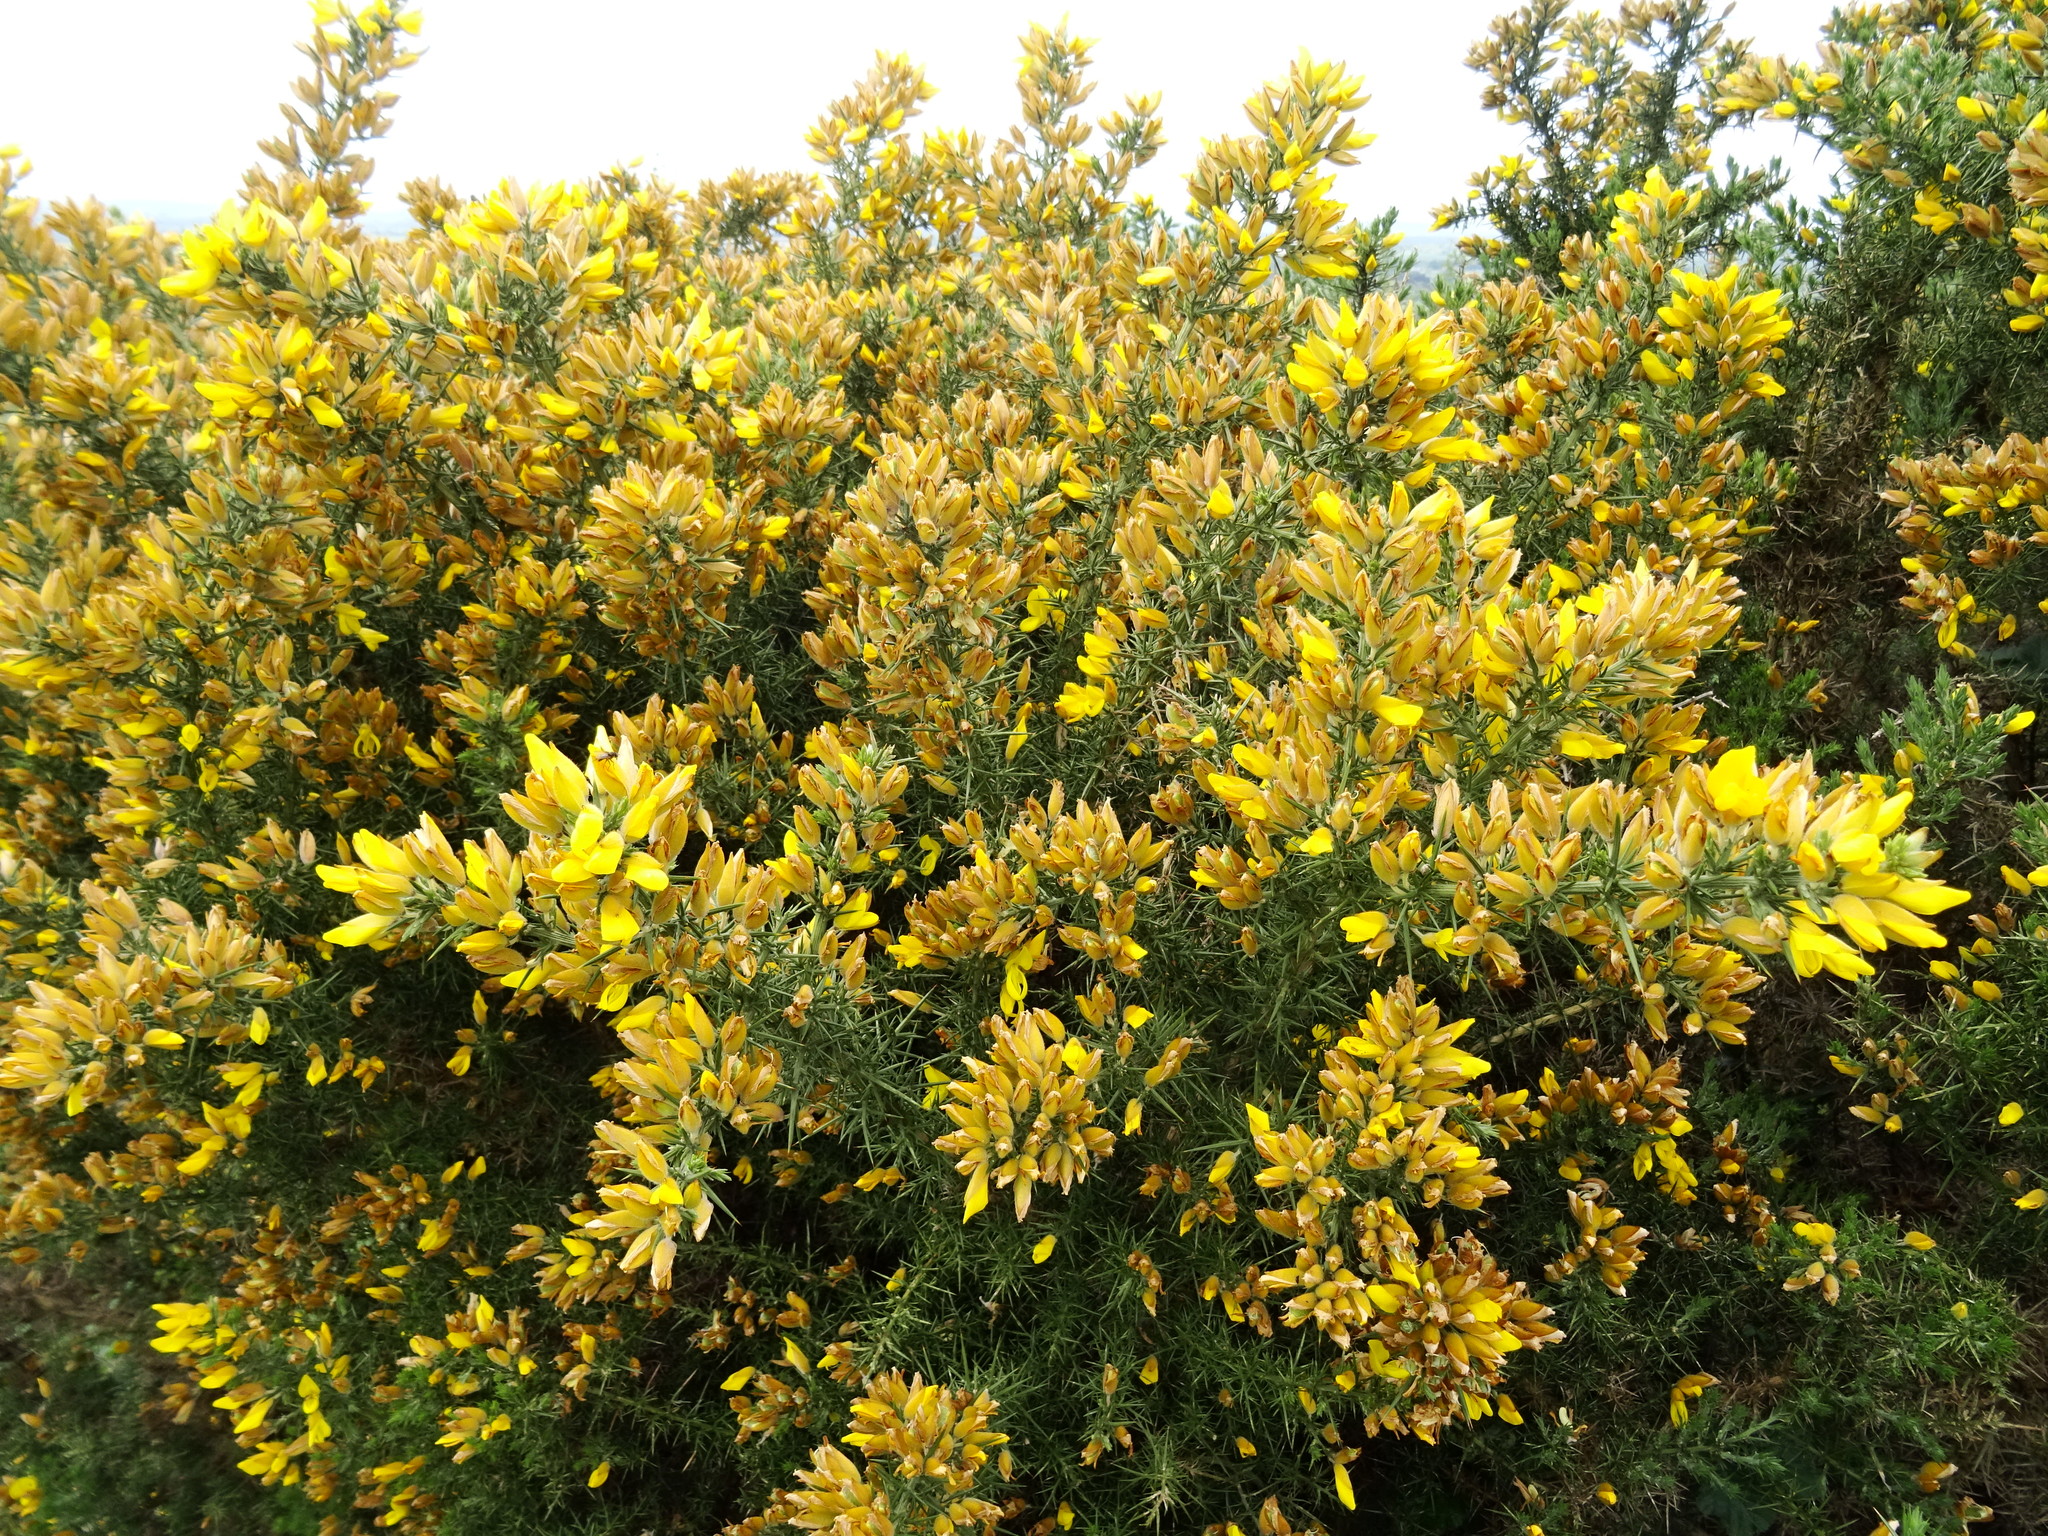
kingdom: Plantae
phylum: Tracheophyta
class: Magnoliopsida
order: Fabales
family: Fabaceae
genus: Ulex
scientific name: Ulex europaeus
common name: Common gorse
